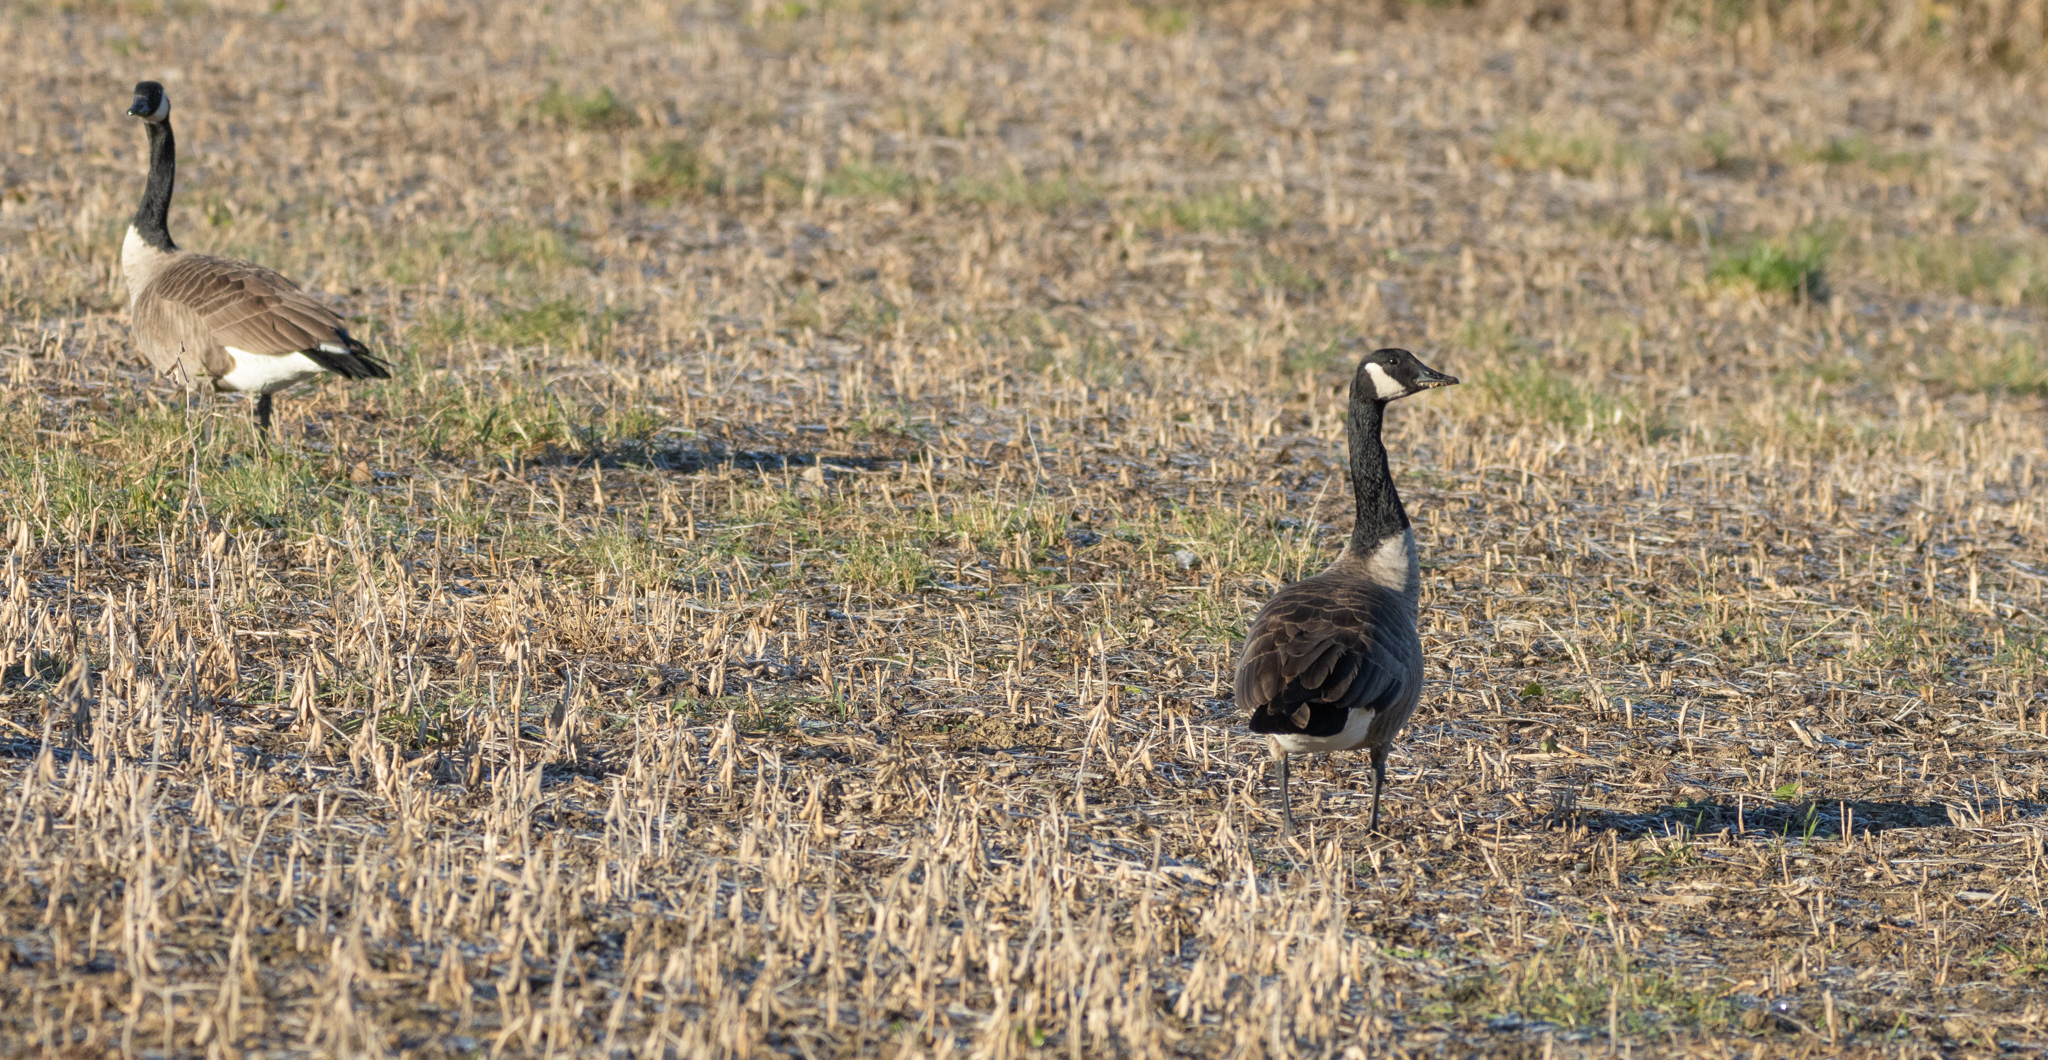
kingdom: Animalia
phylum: Chordata
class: Aves
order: Anseriformes
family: Anatidae
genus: Branta
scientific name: Branta canadensis
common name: Canada goose
